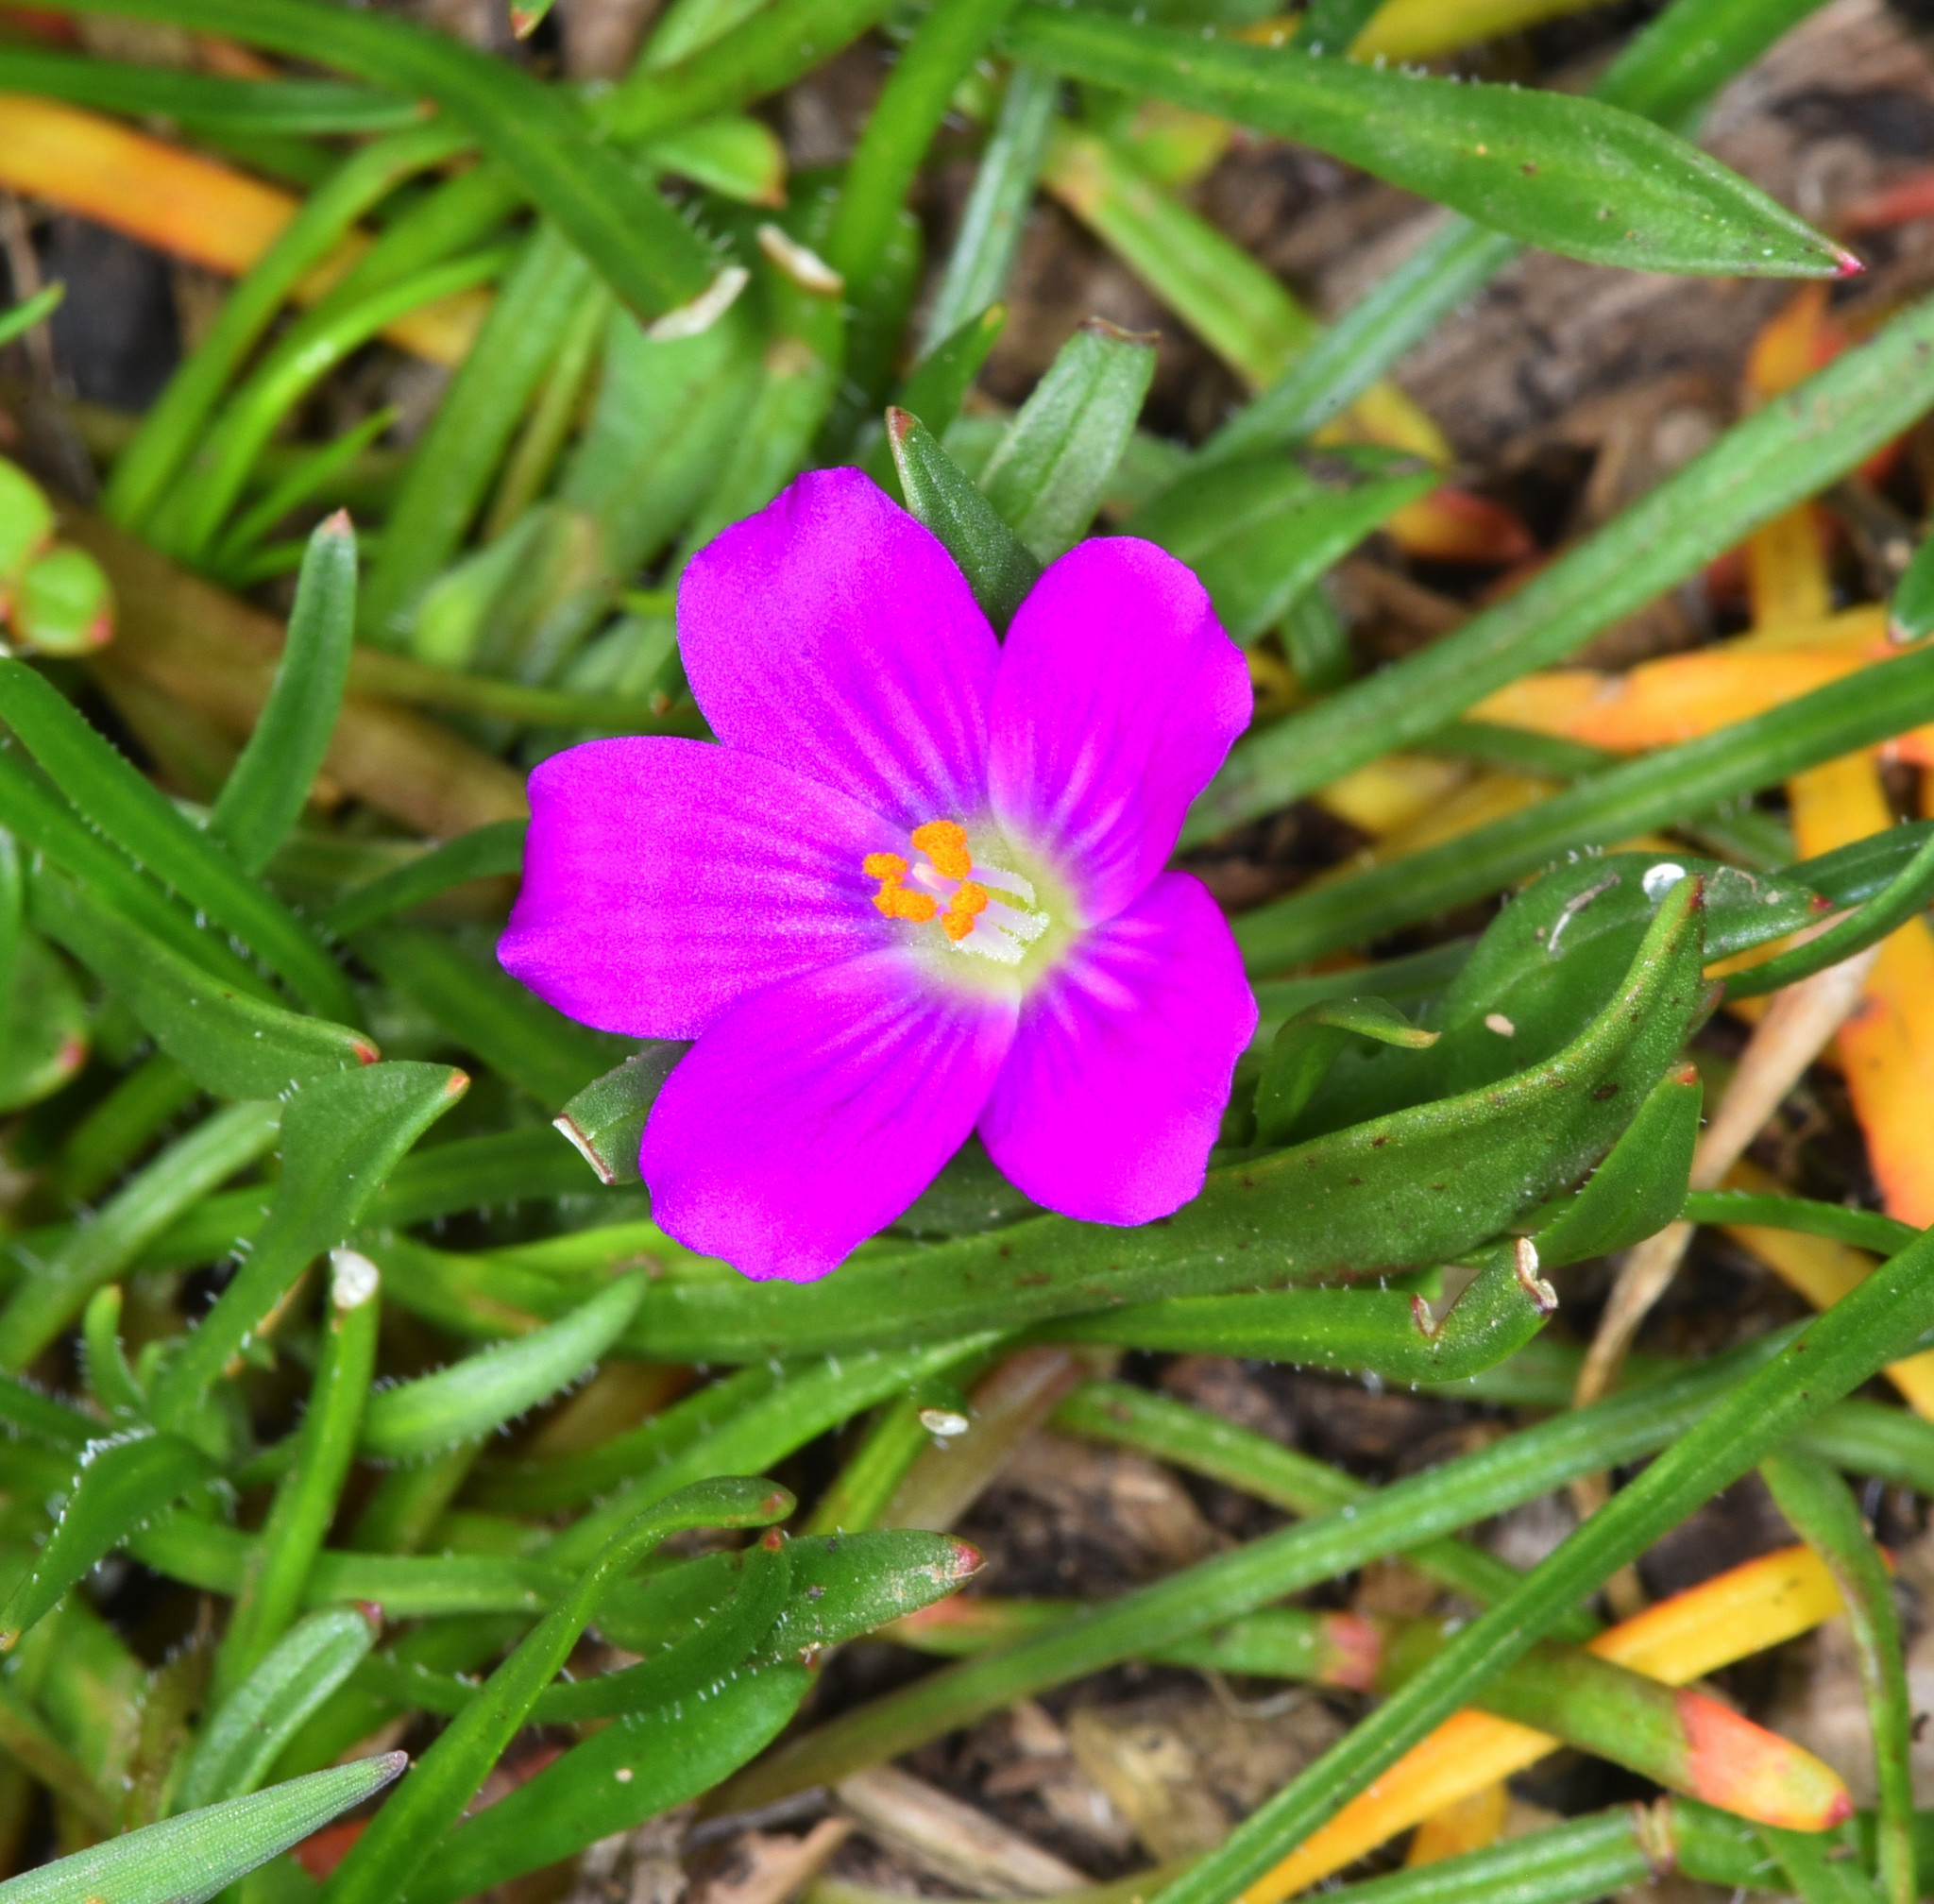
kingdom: Plantae
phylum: Tracheophyta
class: Magnoliopsida
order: Caryophyllales
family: Montiaceae
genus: Calandrinia
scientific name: Calandrinia menziesii
